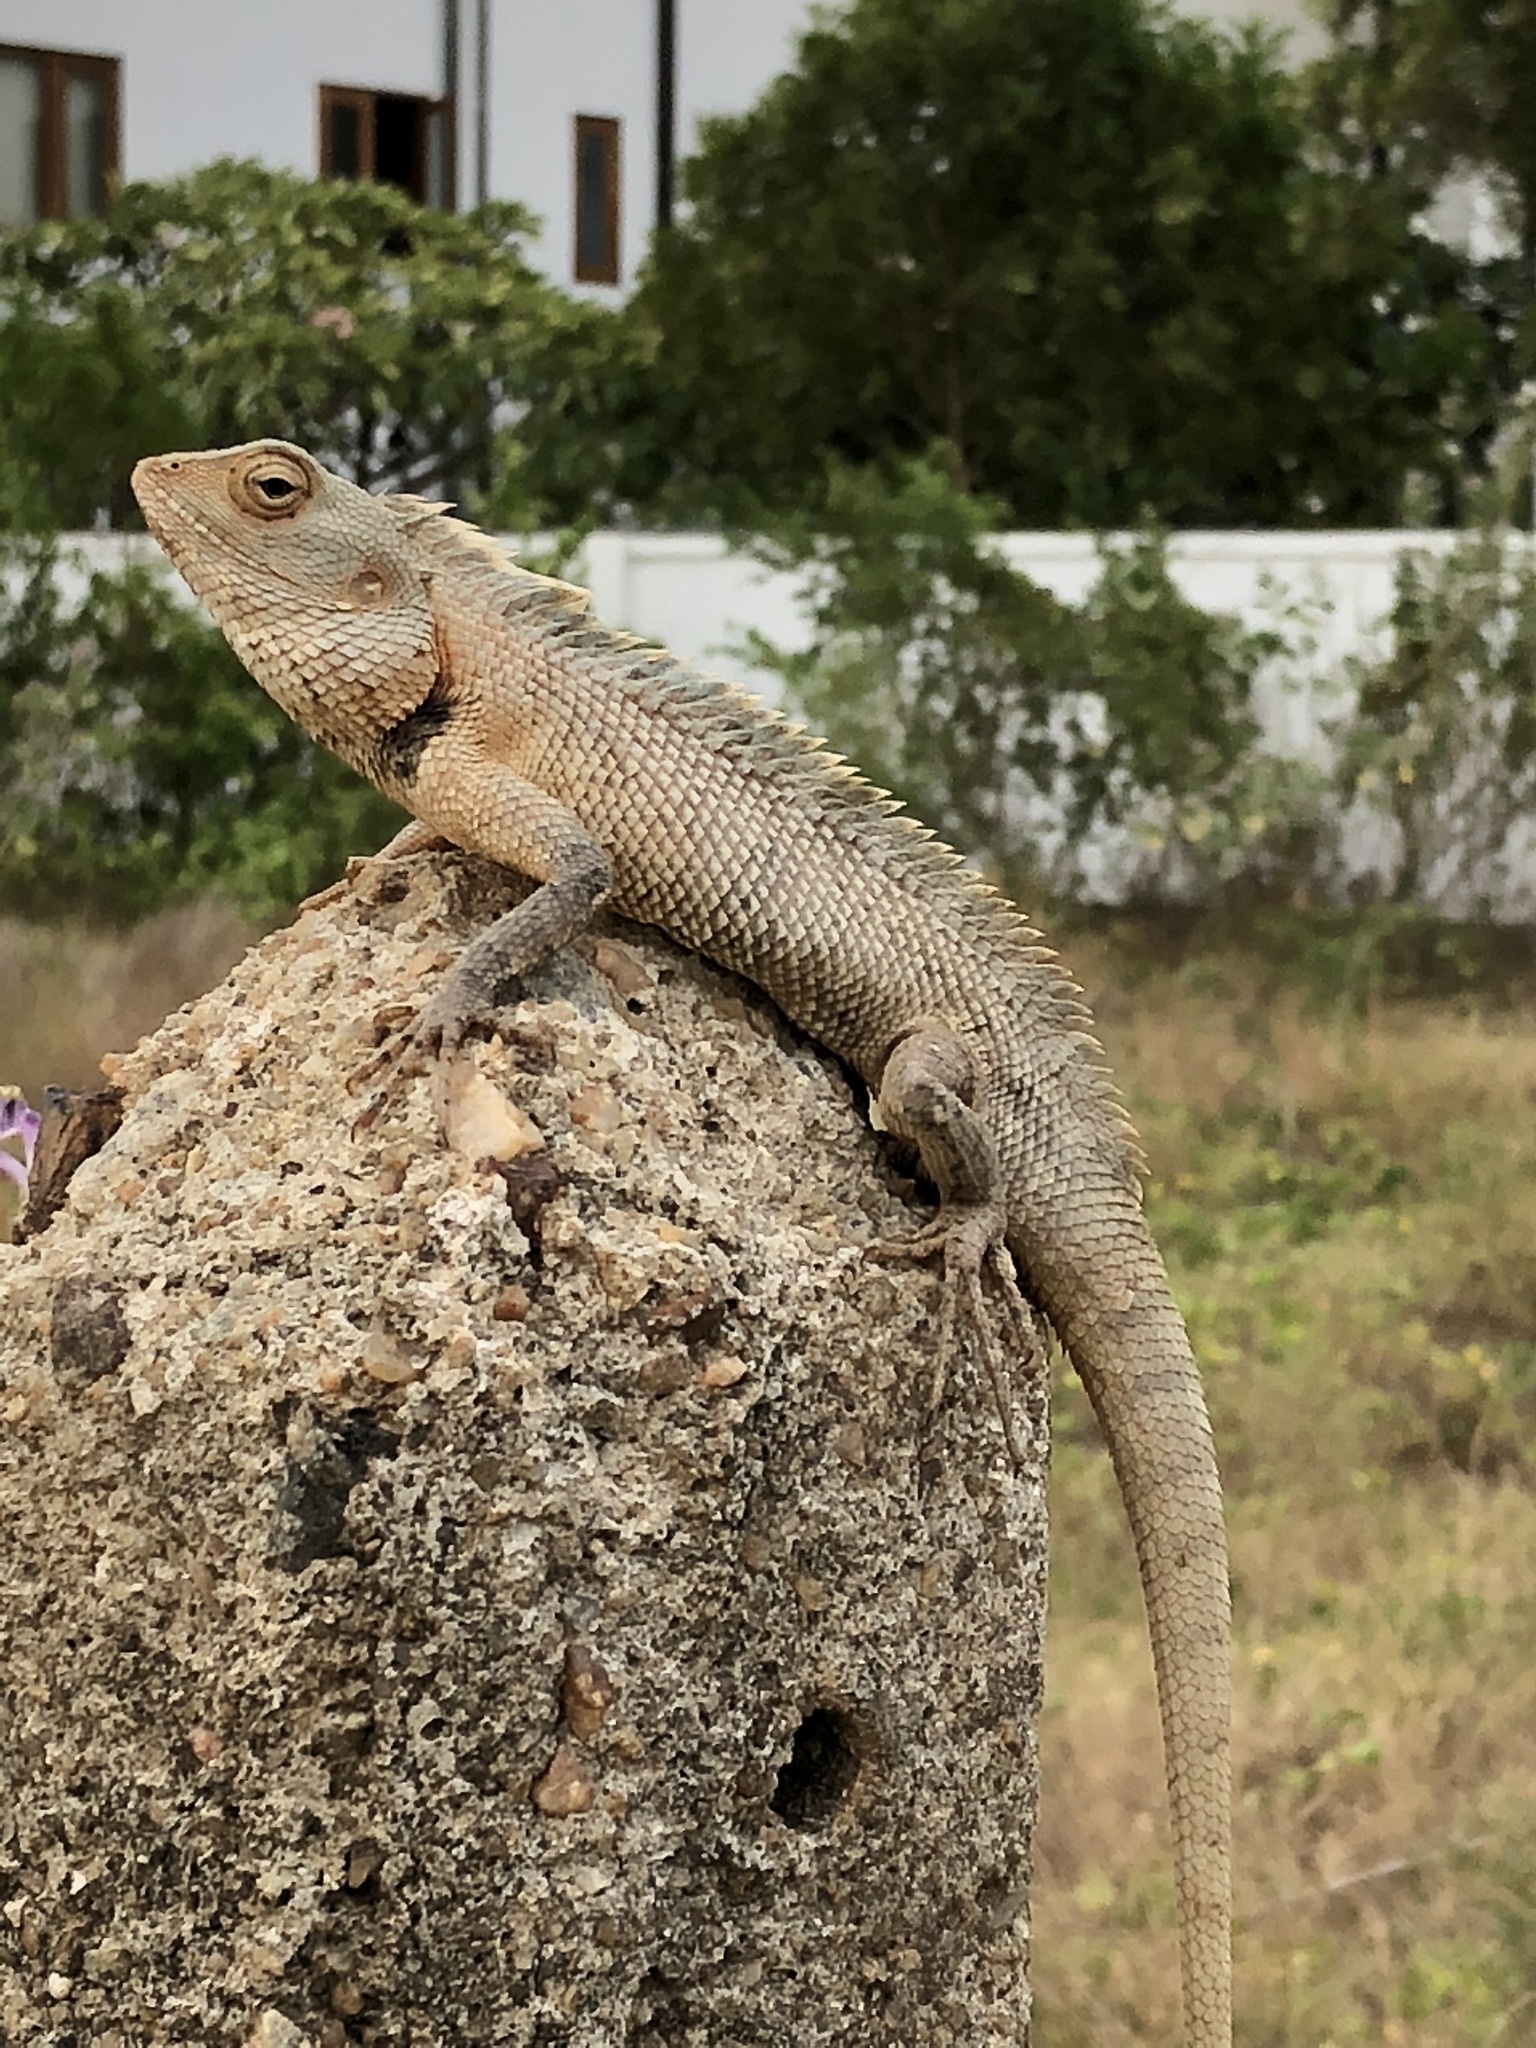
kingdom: Animalia
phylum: Chordata
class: Squamata
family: Agamidae
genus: Calotes
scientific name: Calotes versicolor
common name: Oriental garden lizard
